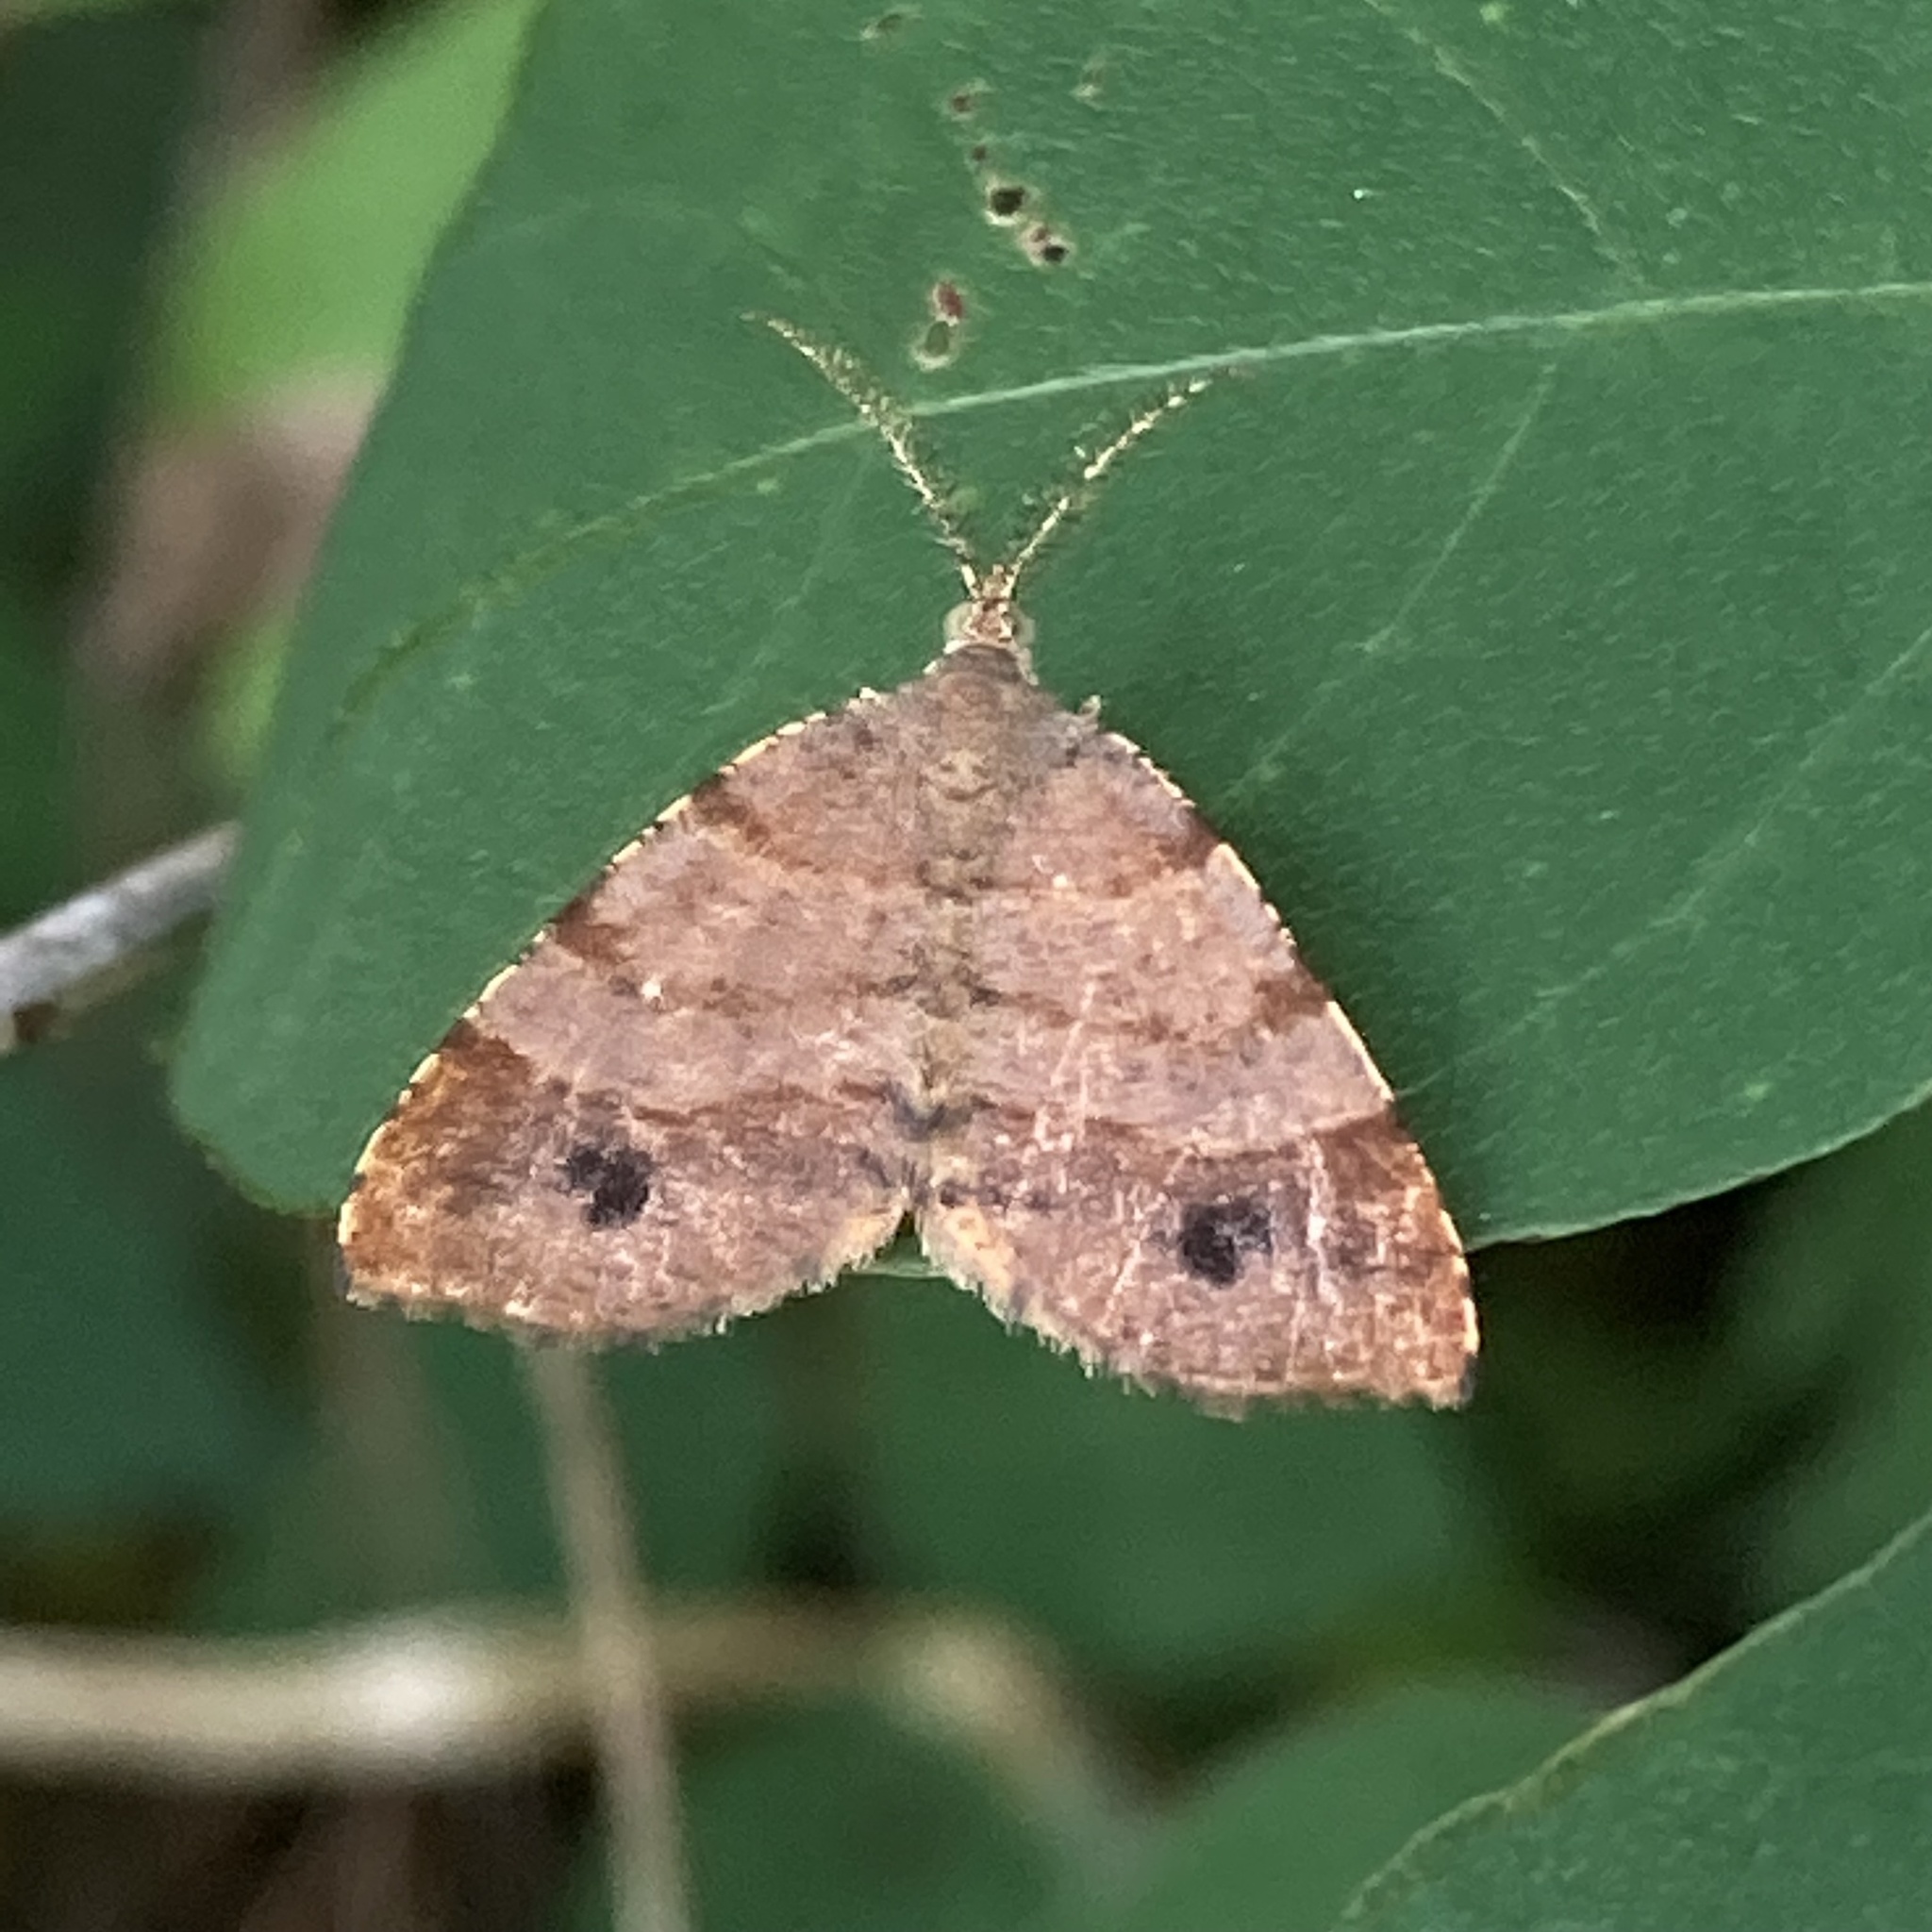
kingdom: Animalia
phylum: Arthropoda
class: Insecta
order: Lepidoptera
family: Geometridae
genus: Mellilla
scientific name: Mellilla xanthometata
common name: Orange wing moth
